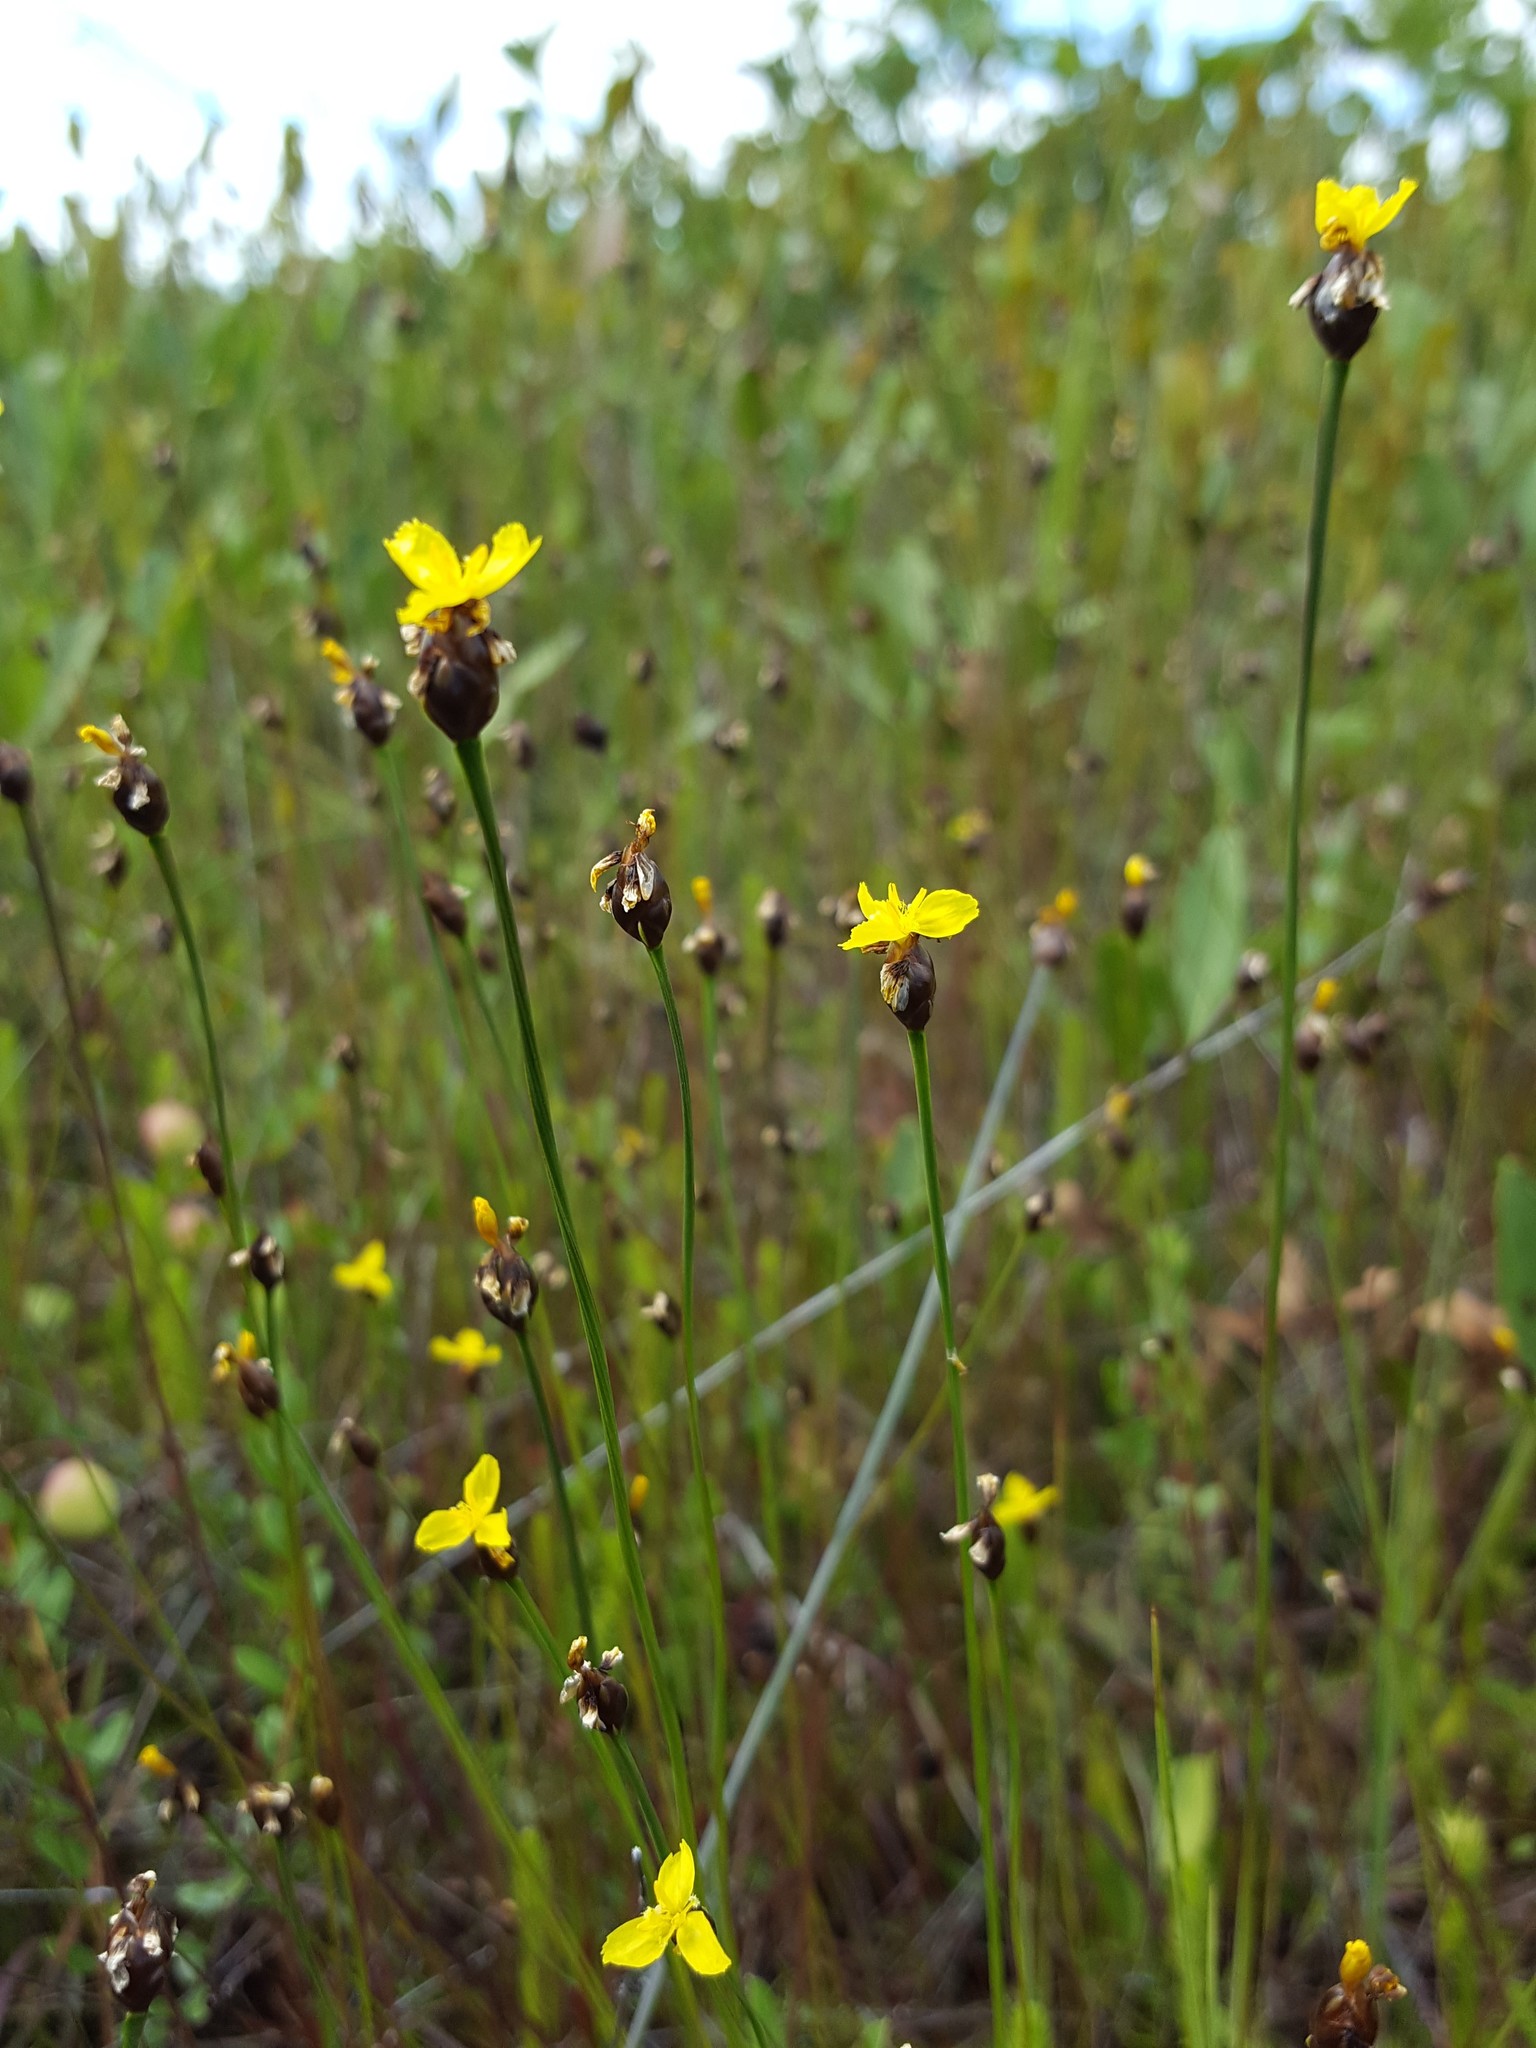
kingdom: Plantae
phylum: Tracheophyta
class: Liliopsida
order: Poales
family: Xyridaceae
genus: Xyris
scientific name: Xyris montana
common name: Northern yellow-eyed-grass
